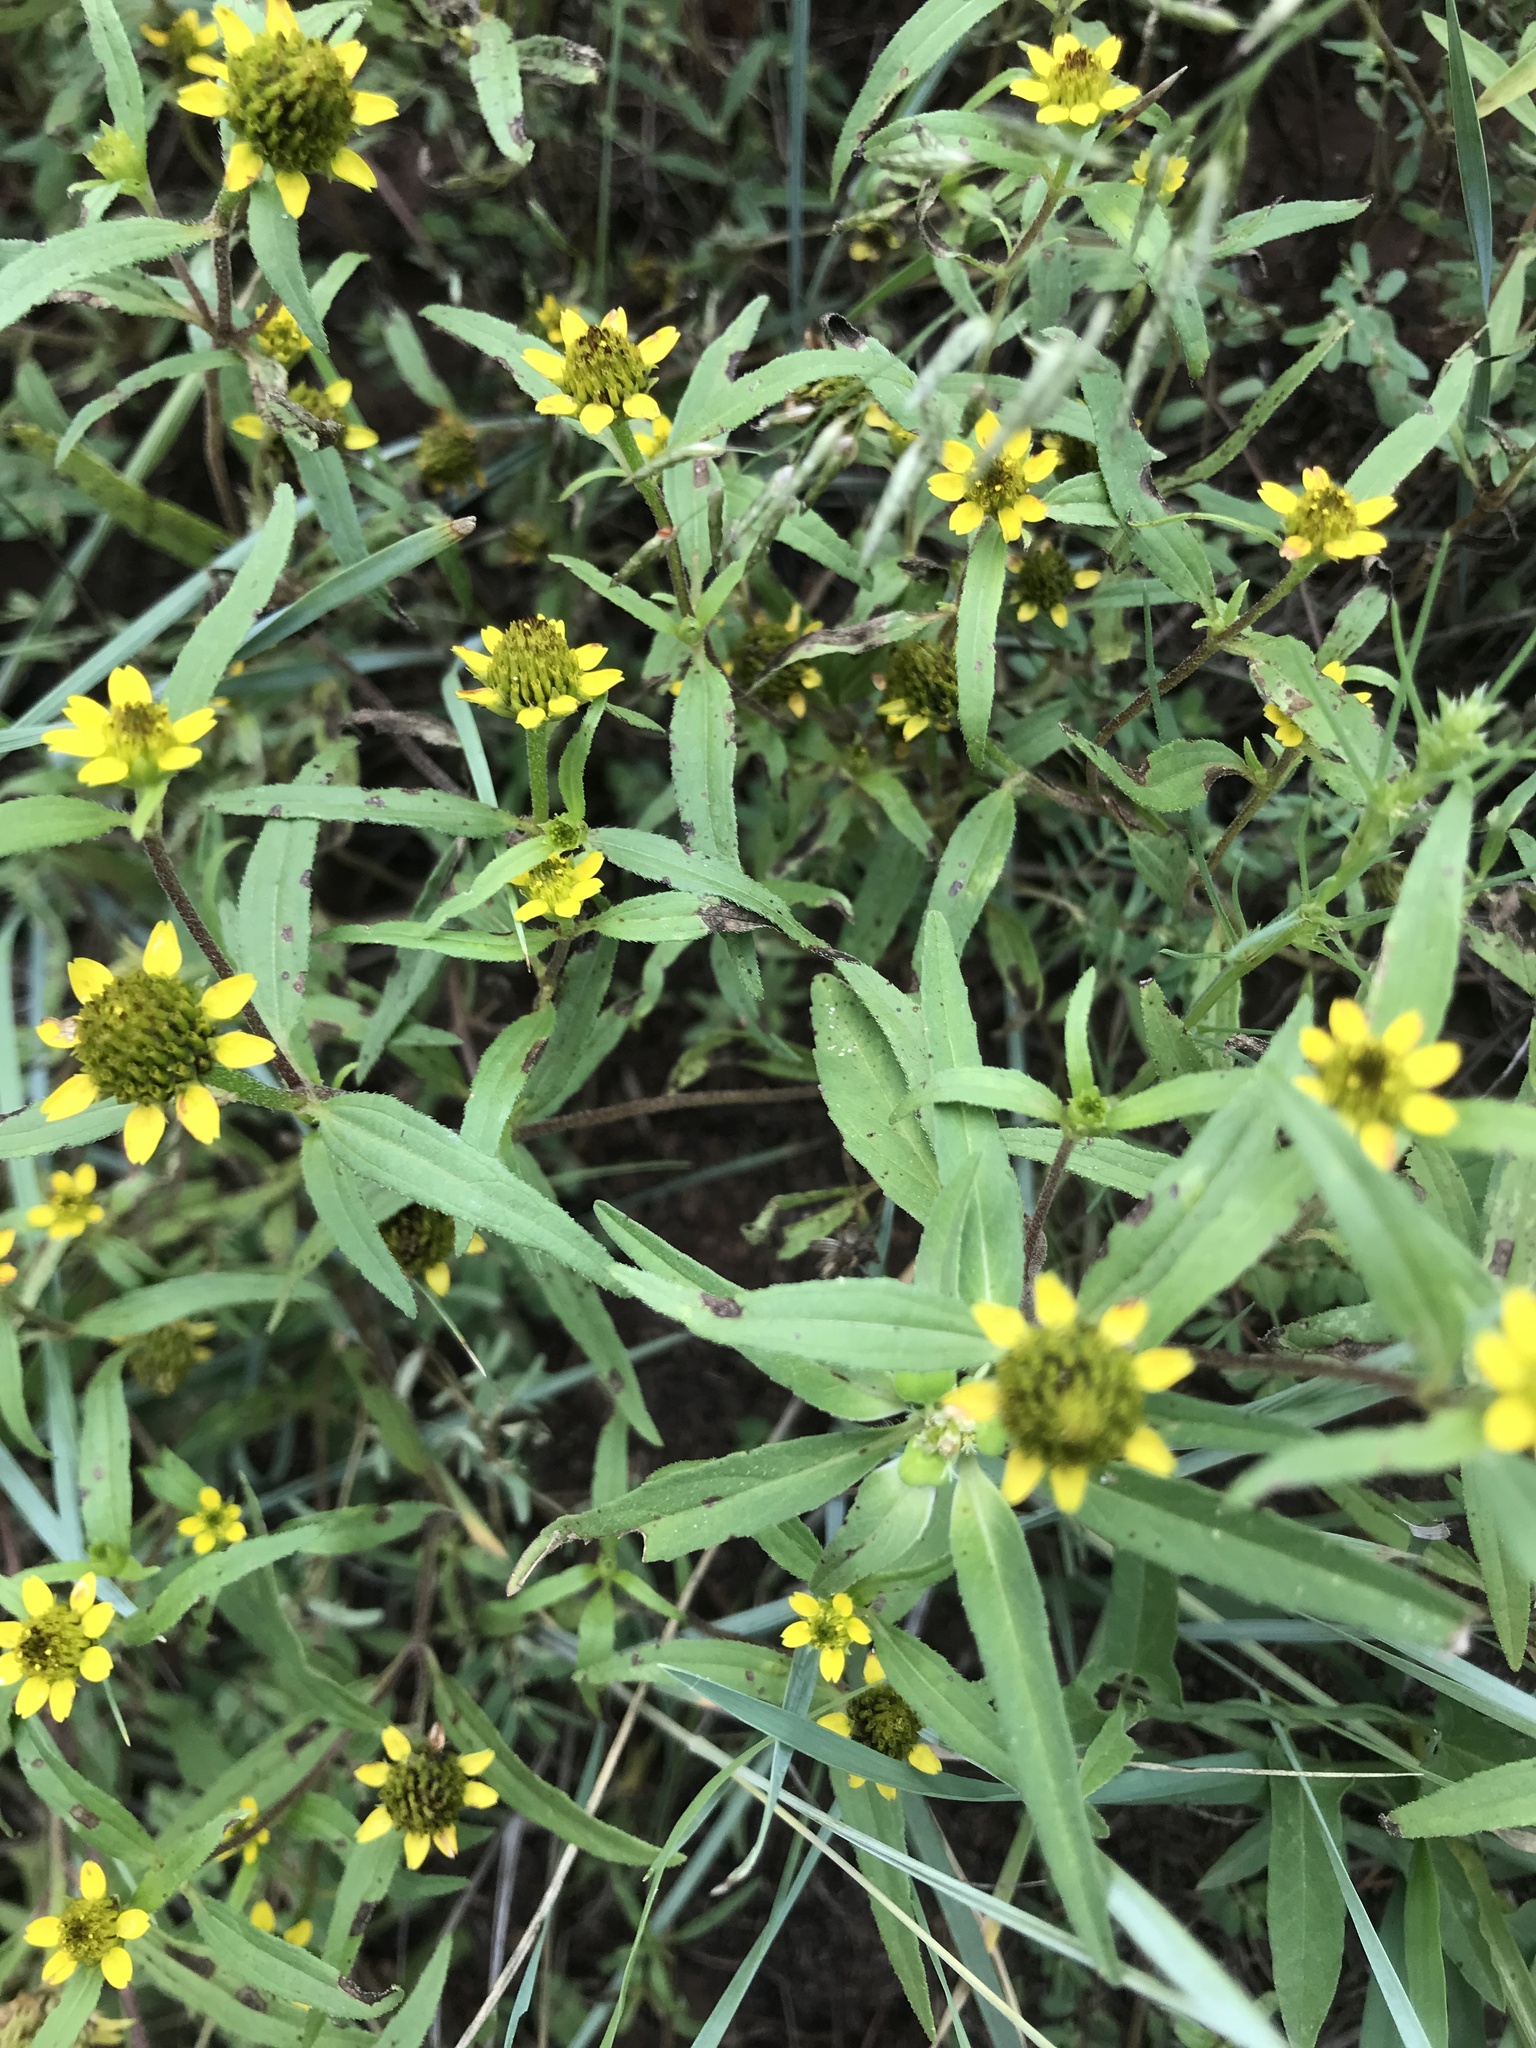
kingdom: Plantae
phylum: Tracheophyta
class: Magnoliopsida
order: Asterales
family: Asteraceae
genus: Sanvitalia
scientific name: Sanvitalia abertii
